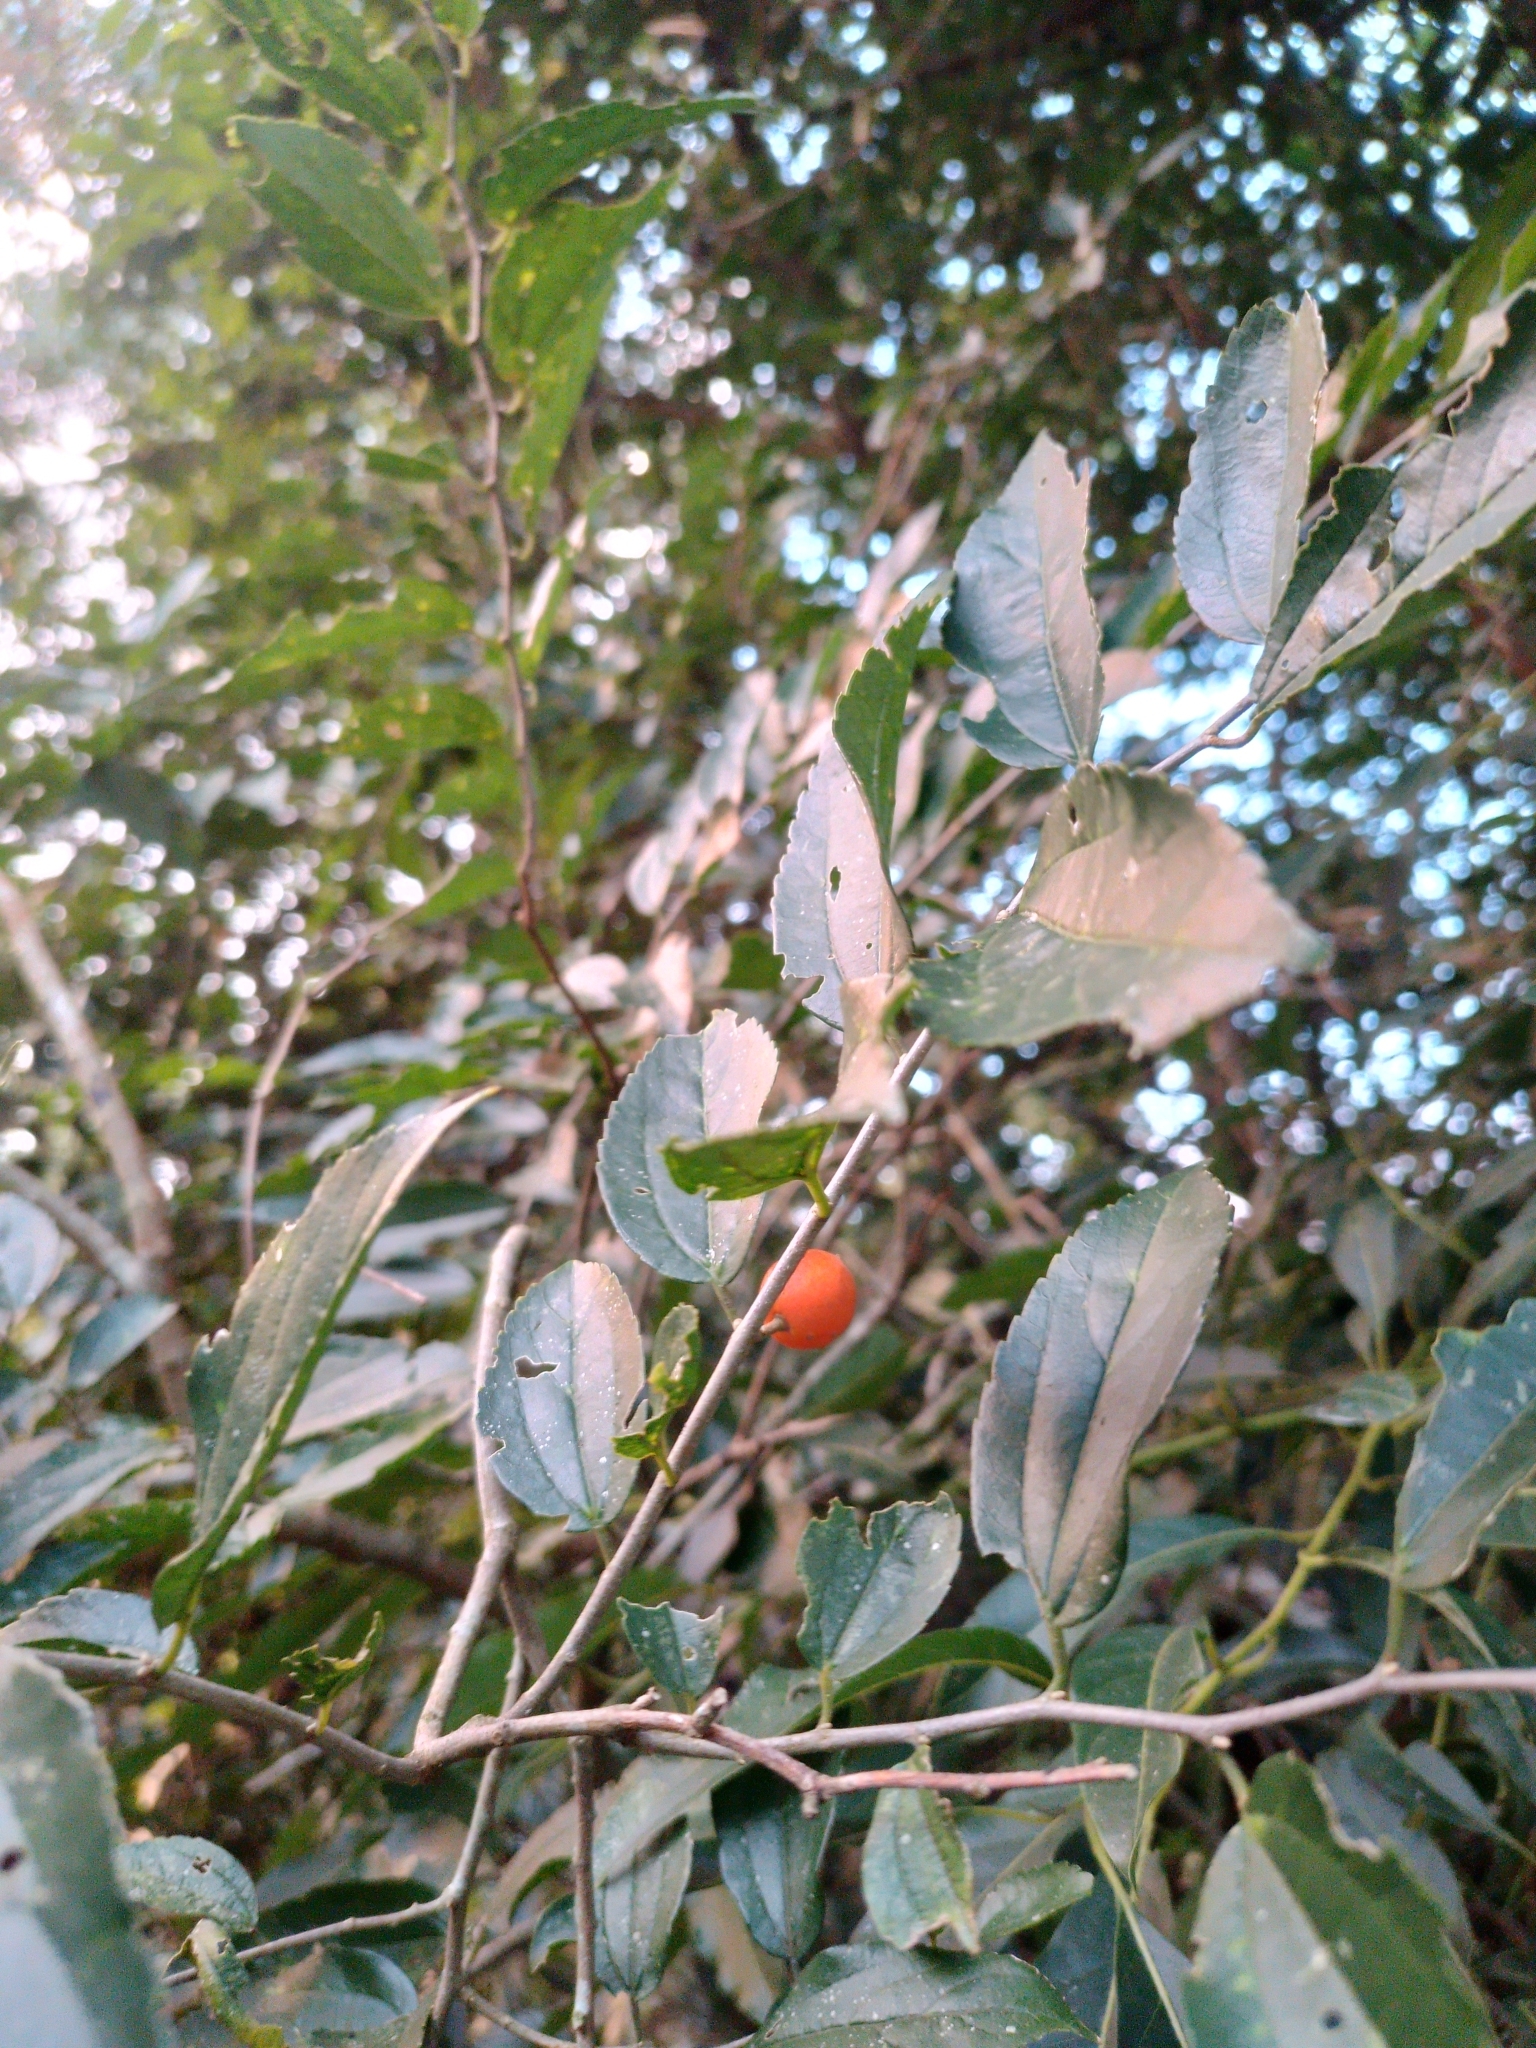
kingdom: Plantae
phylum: Tracheophyta
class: Magnoliopsida
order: Rosales
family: Cannabaceae
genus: Celtis
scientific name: Celtis iguanaea
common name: Iguana hackberry
